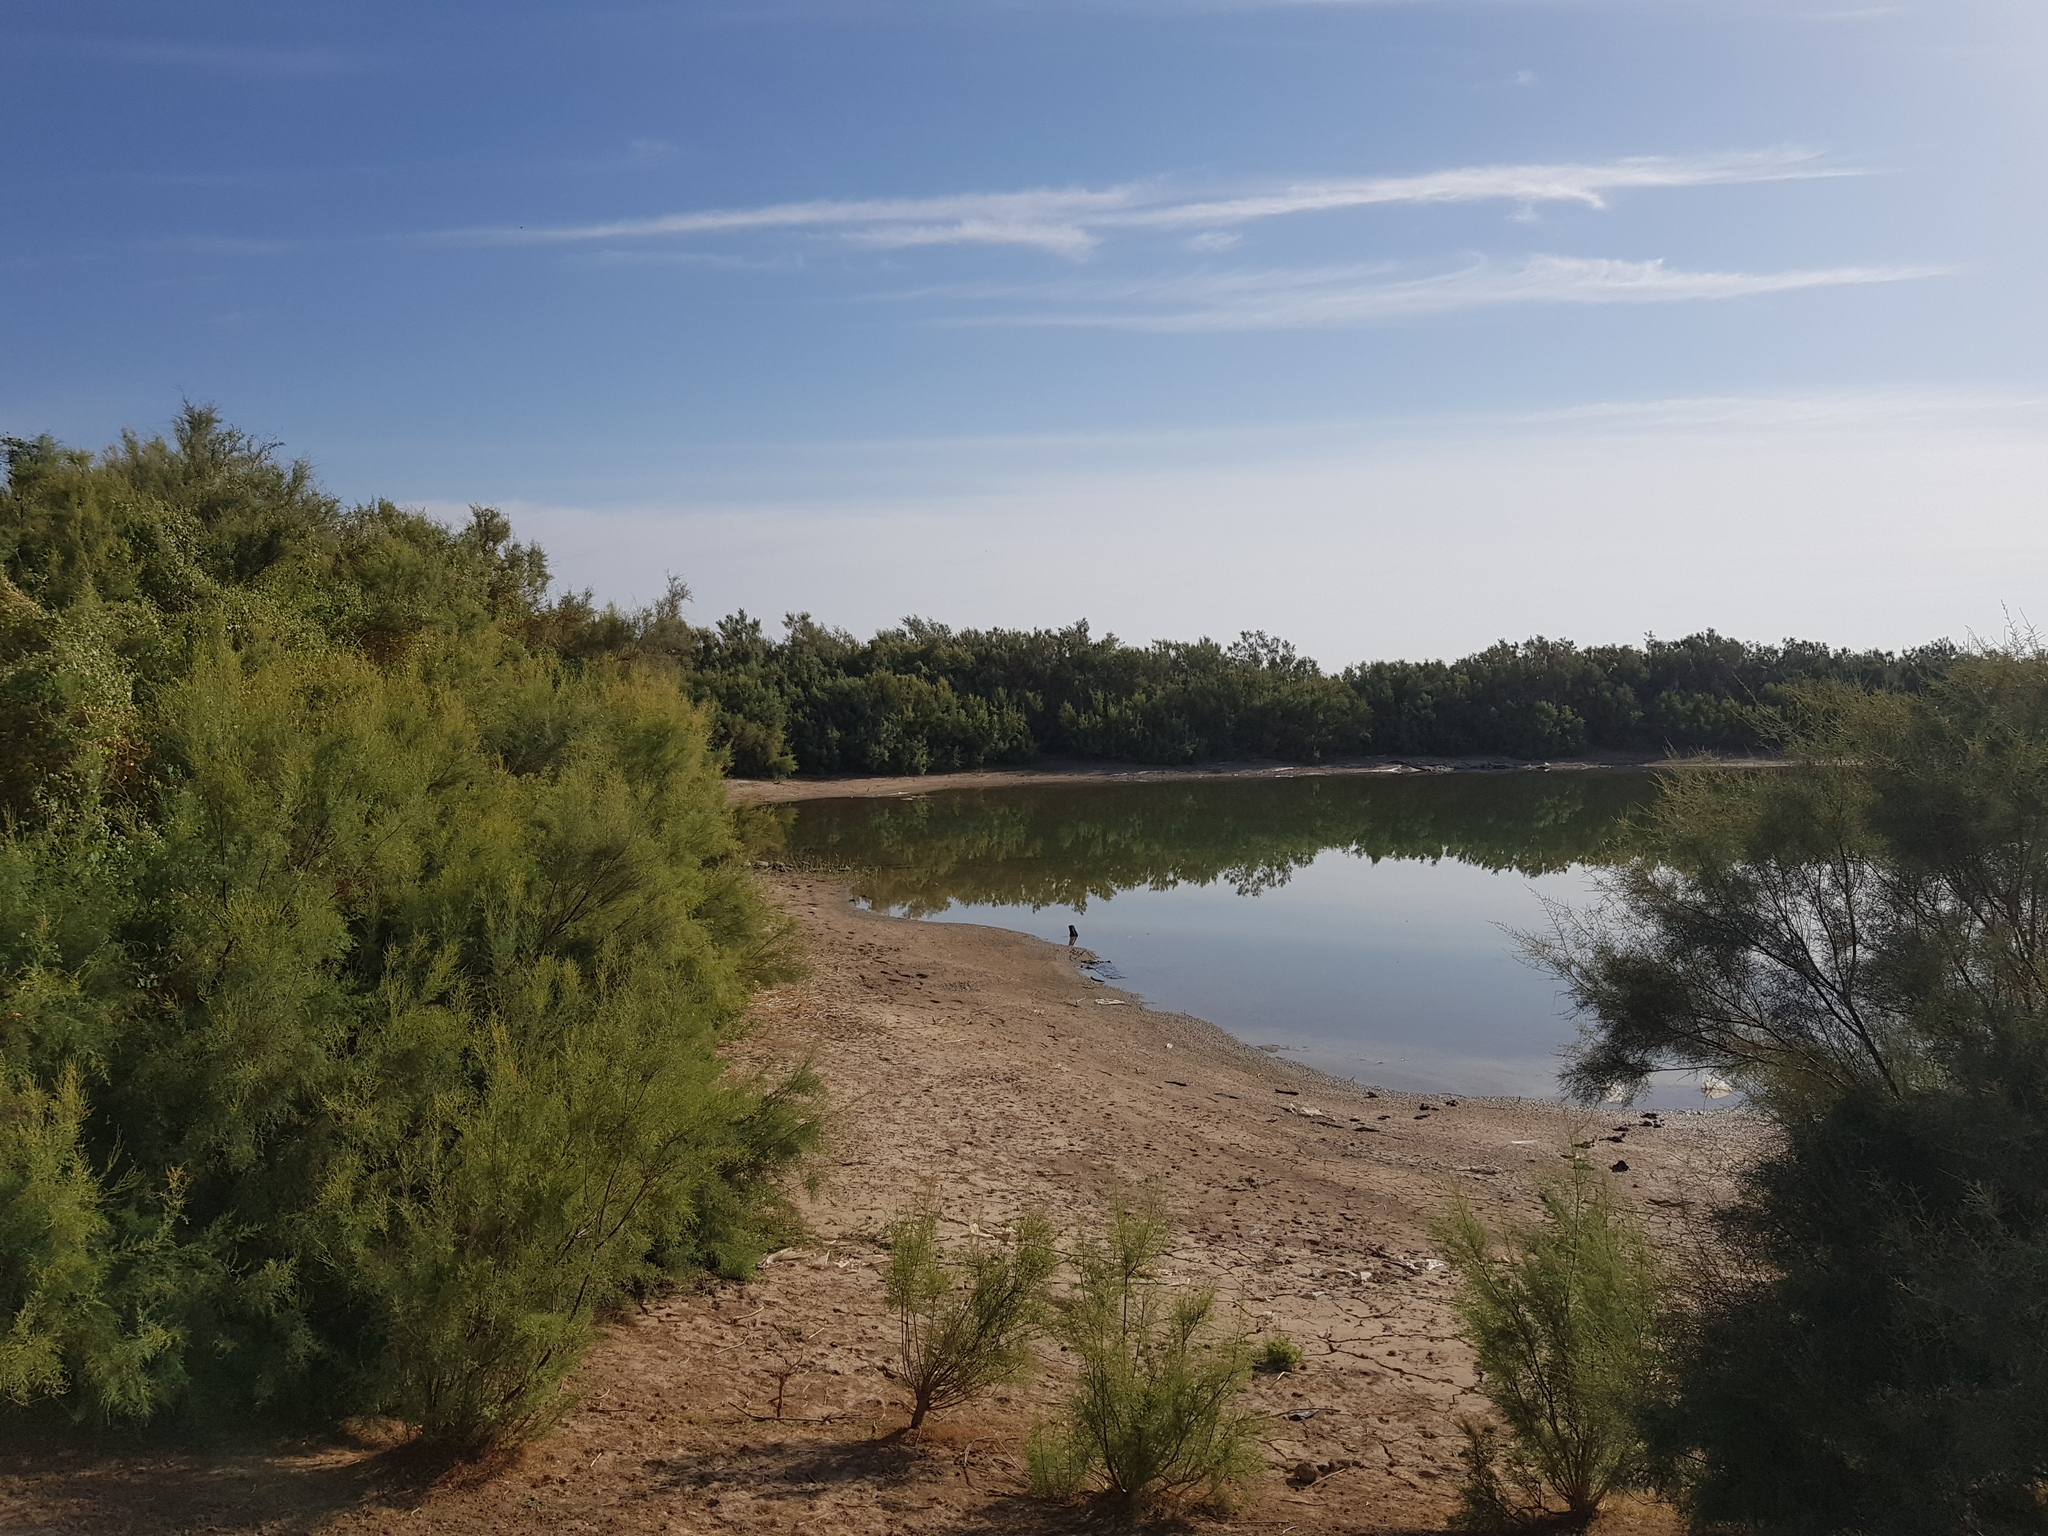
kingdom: Plantae
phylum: Tracheophyta
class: Magnoliopsida
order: Caryophyllales
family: Tamaricaceae
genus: Tamarix
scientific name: Tamarix ramosissima
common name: Pink tamarisk
